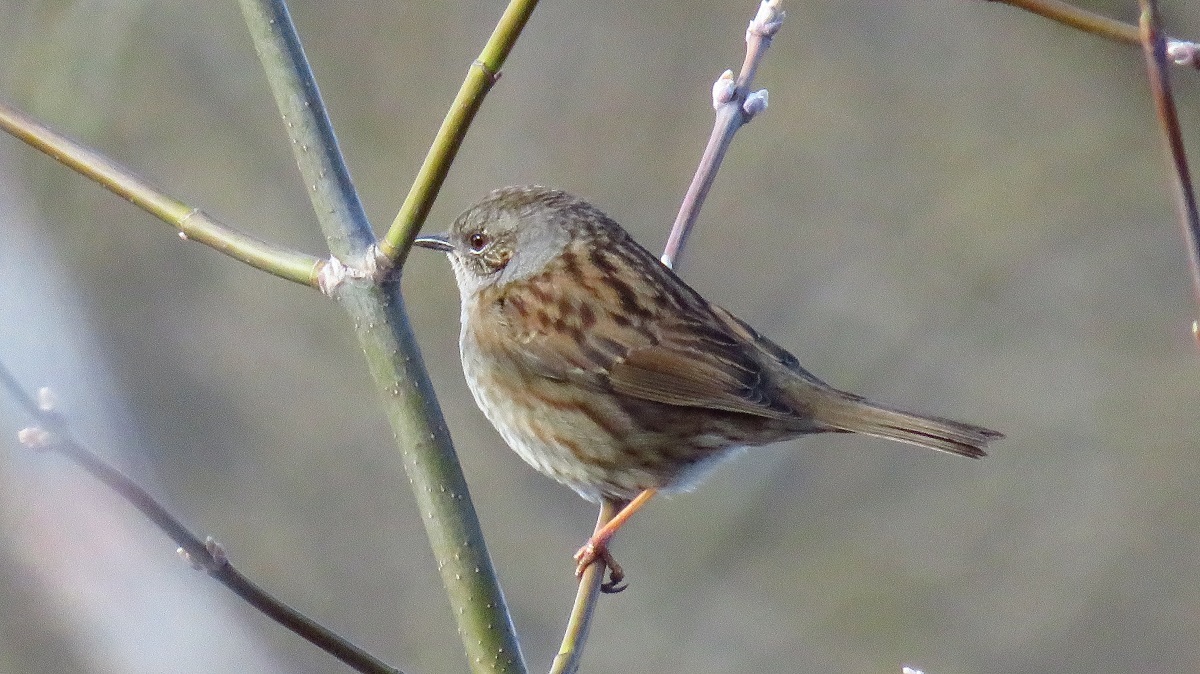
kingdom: Animalia
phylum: Chordata
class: Aves
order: Passeriformes
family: Prunellidae
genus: Prunella
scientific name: Prunella modularis
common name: Dunnock
